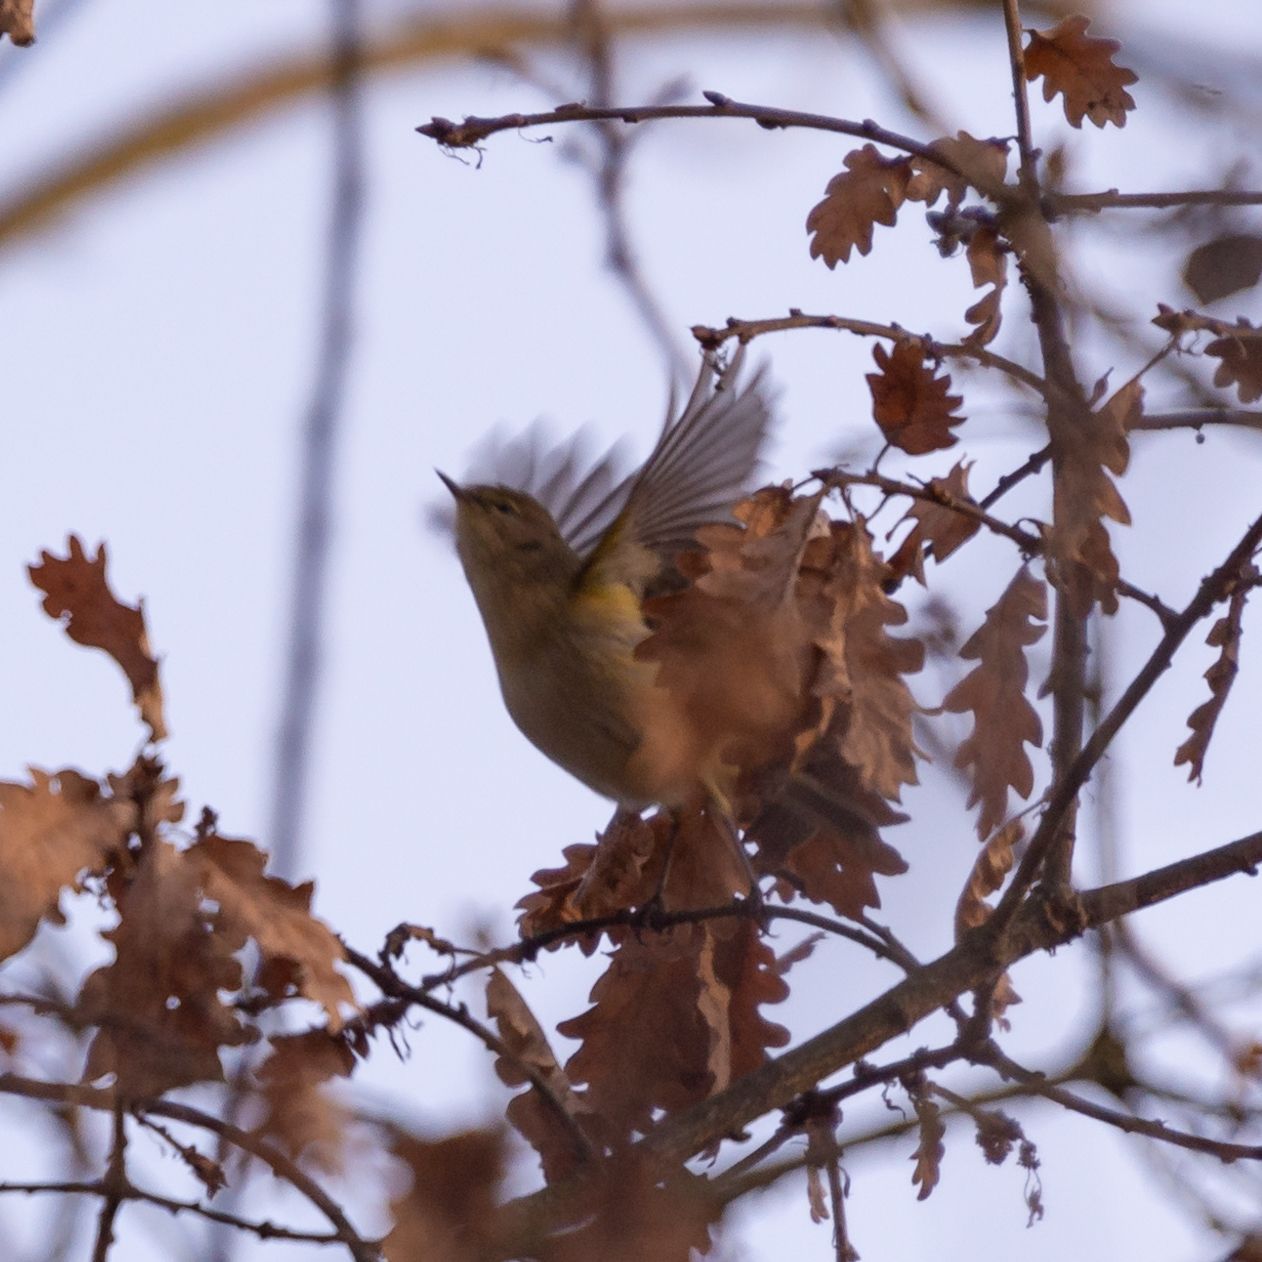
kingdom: Animalia
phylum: Chordata
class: Aves
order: Passeriformes
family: Phylloscopidae
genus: Phylloscopus
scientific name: Phylloscopus collybita
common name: Common chiffchaff
